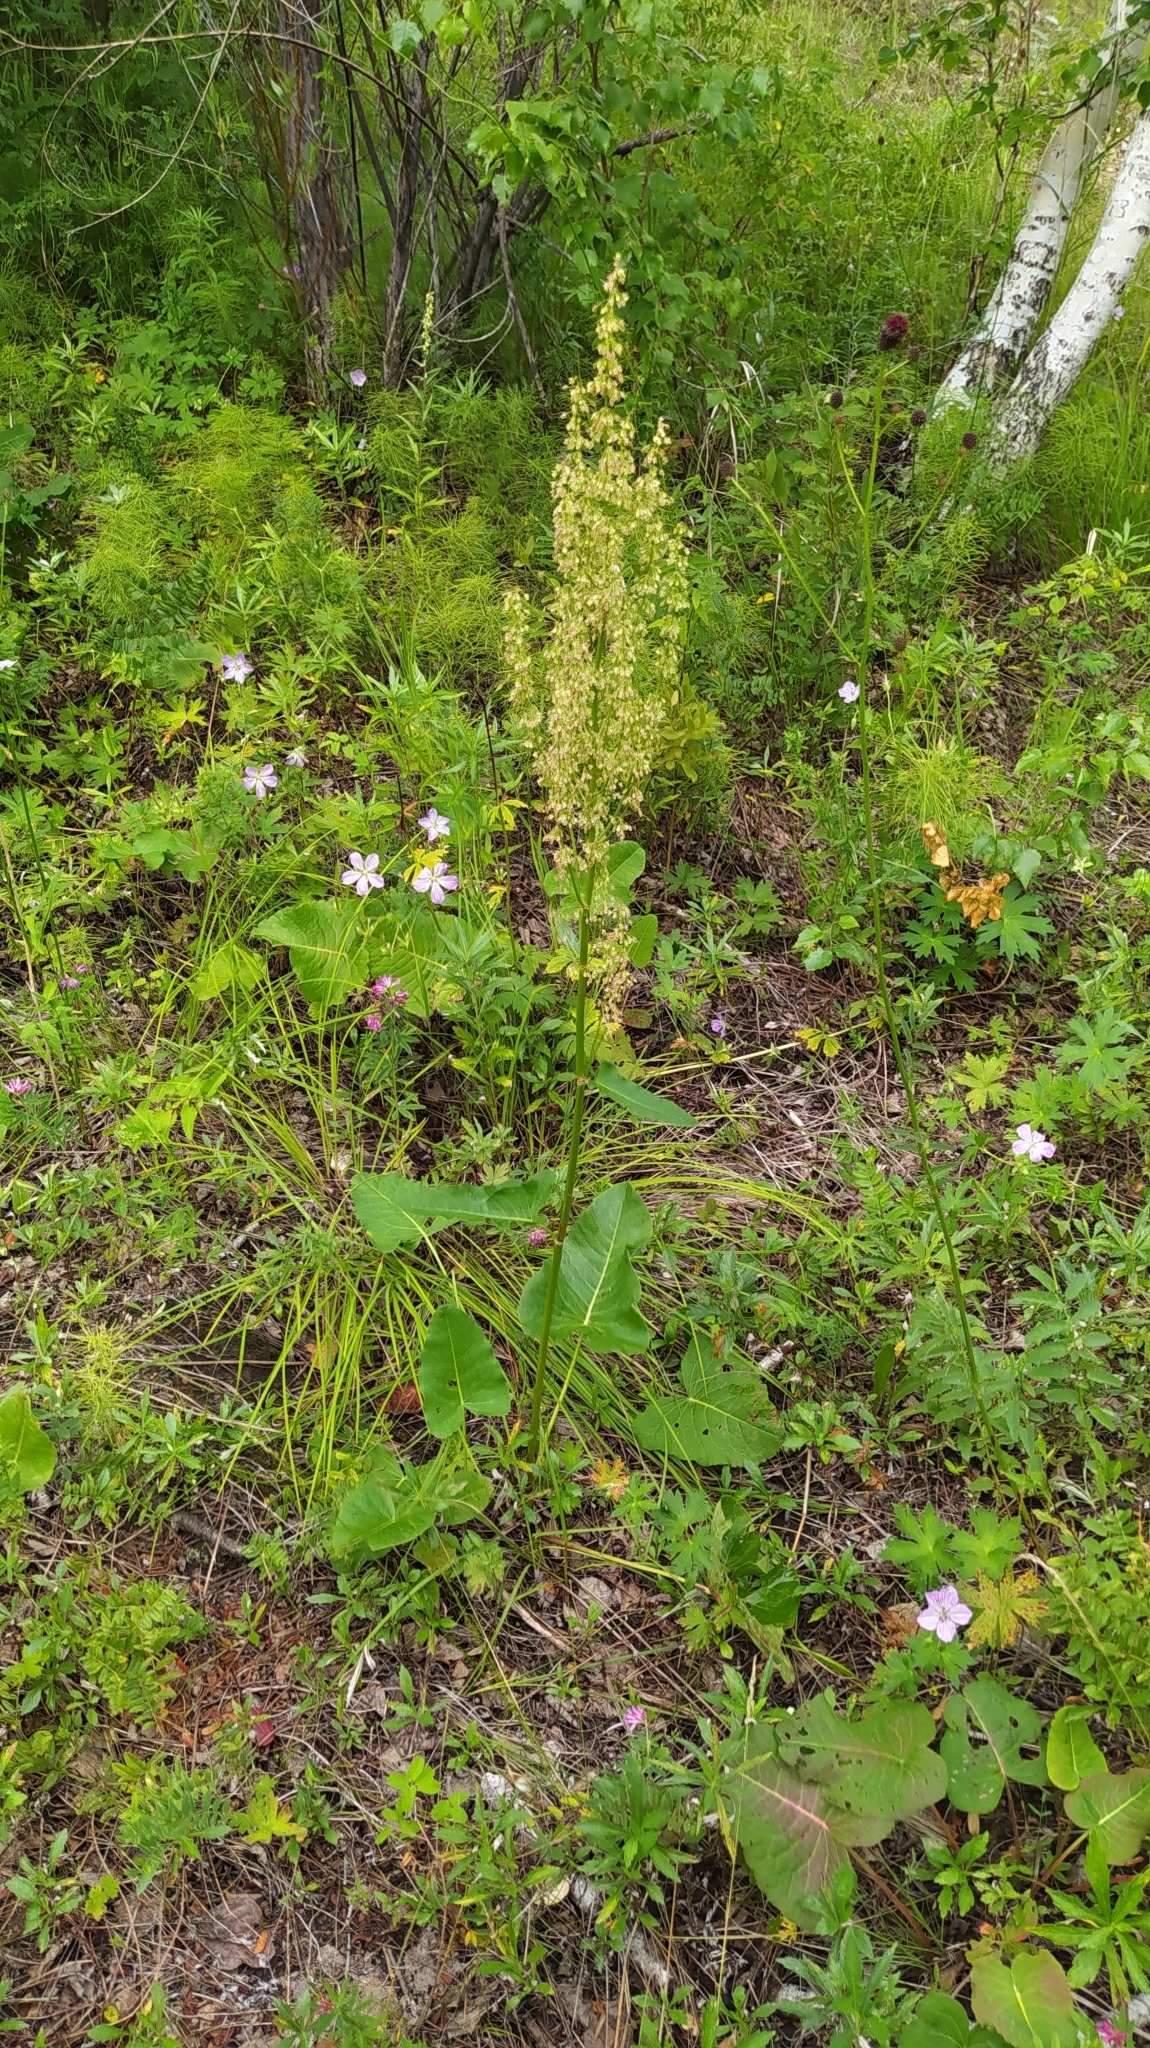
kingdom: Plantae
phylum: Tracheophyta
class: Magnoliopsida
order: Caryophyllales
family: Polygonaceae
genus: Rumex
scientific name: Rumex aquaticus
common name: Scottish dock
